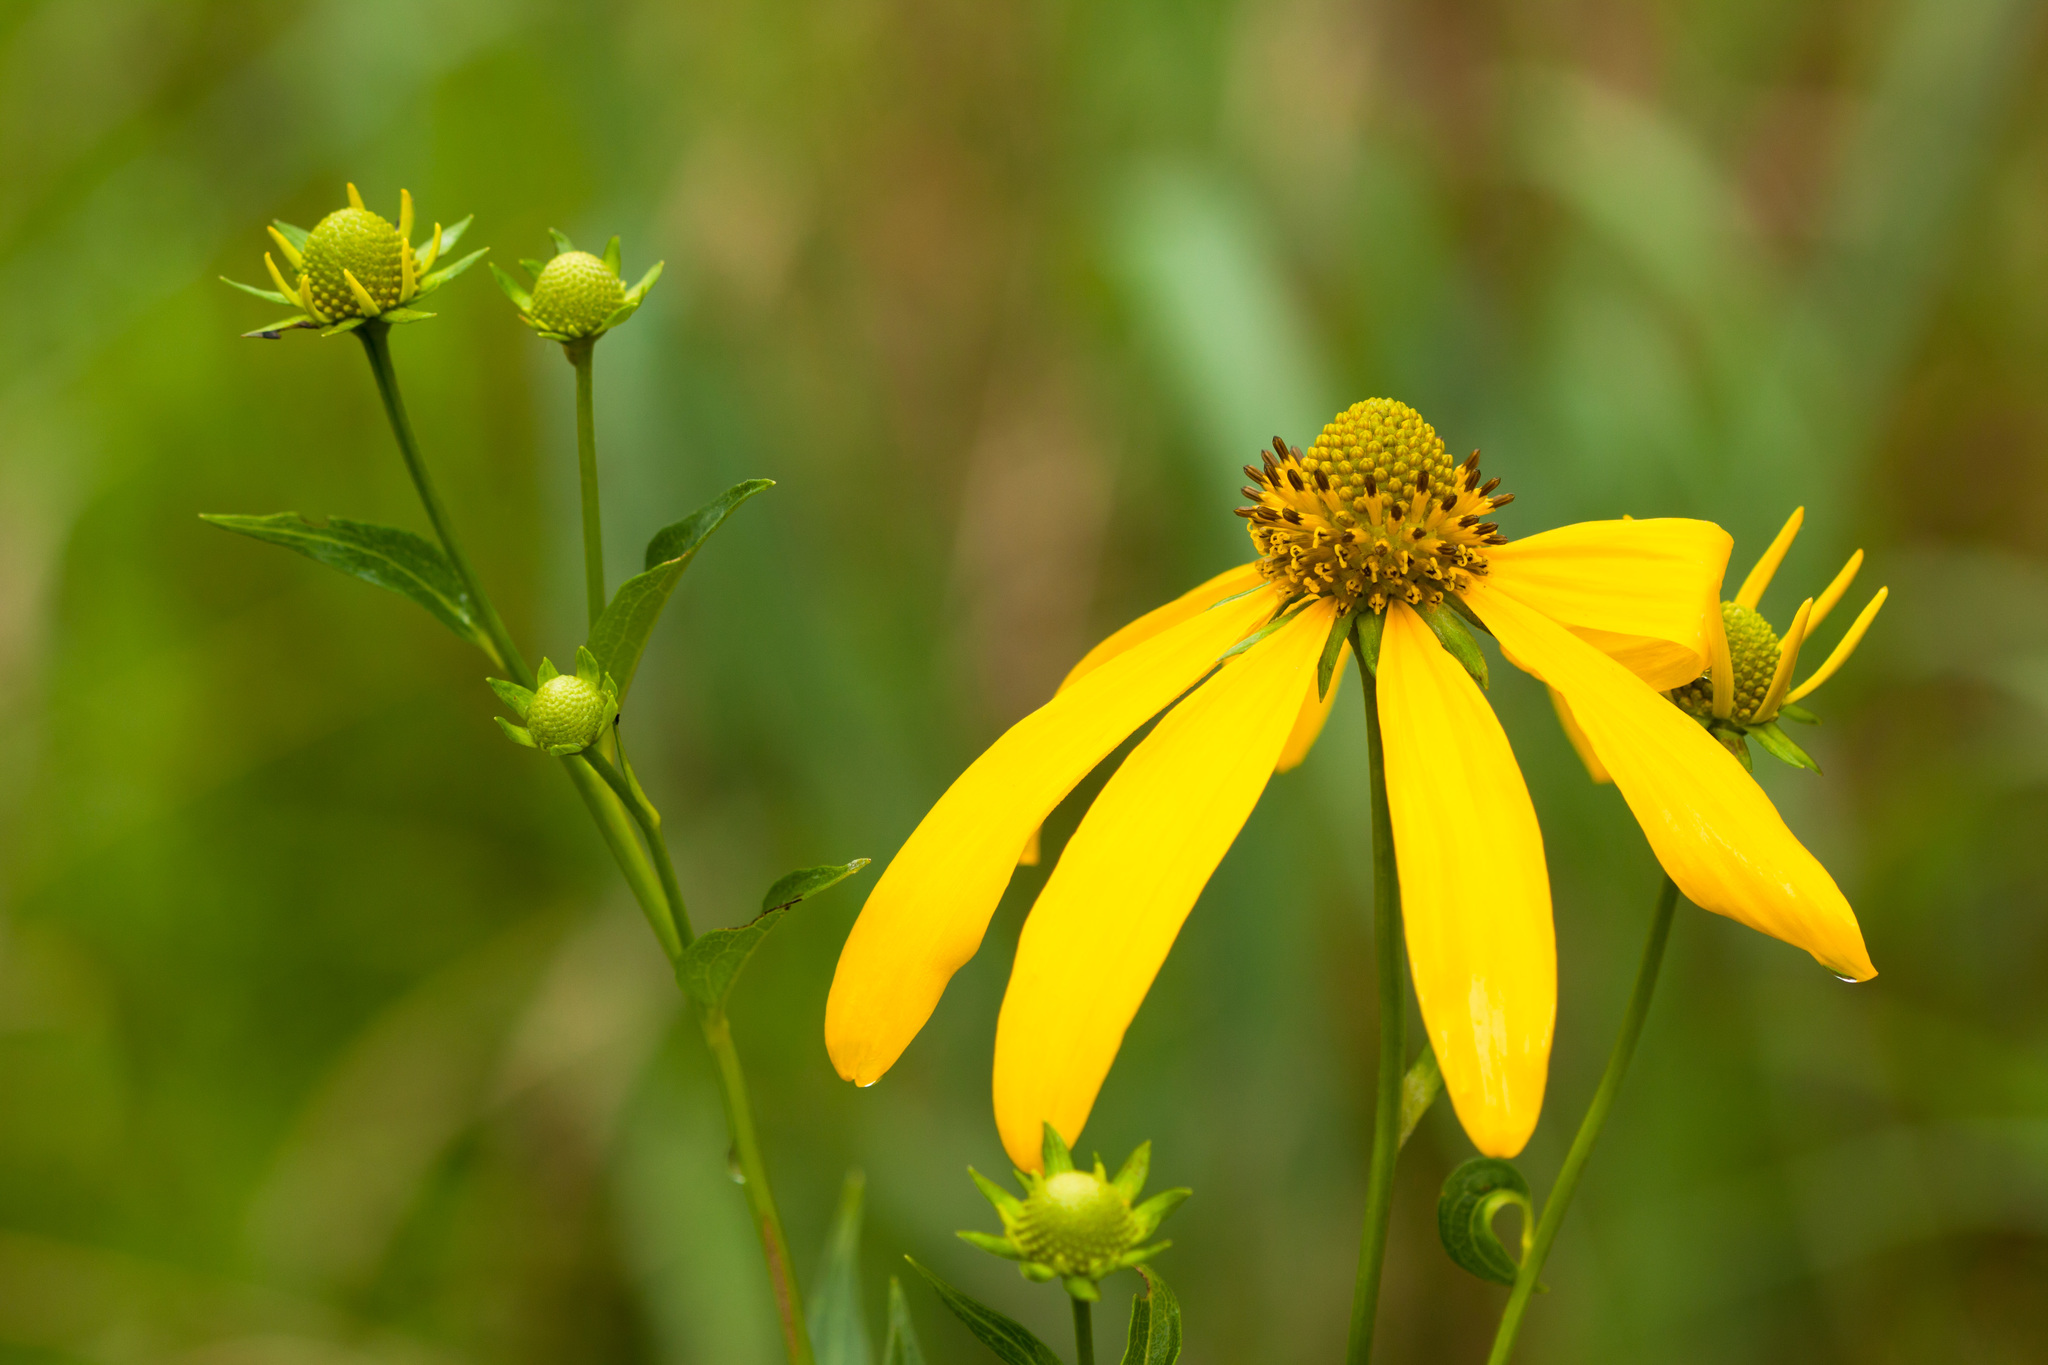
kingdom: Plantae
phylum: Tracheophyta
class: Magnoliopsida
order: Asterales
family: Asteraceae
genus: Rudbeckia
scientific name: Rudbeckia laciniata
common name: Coneflower
